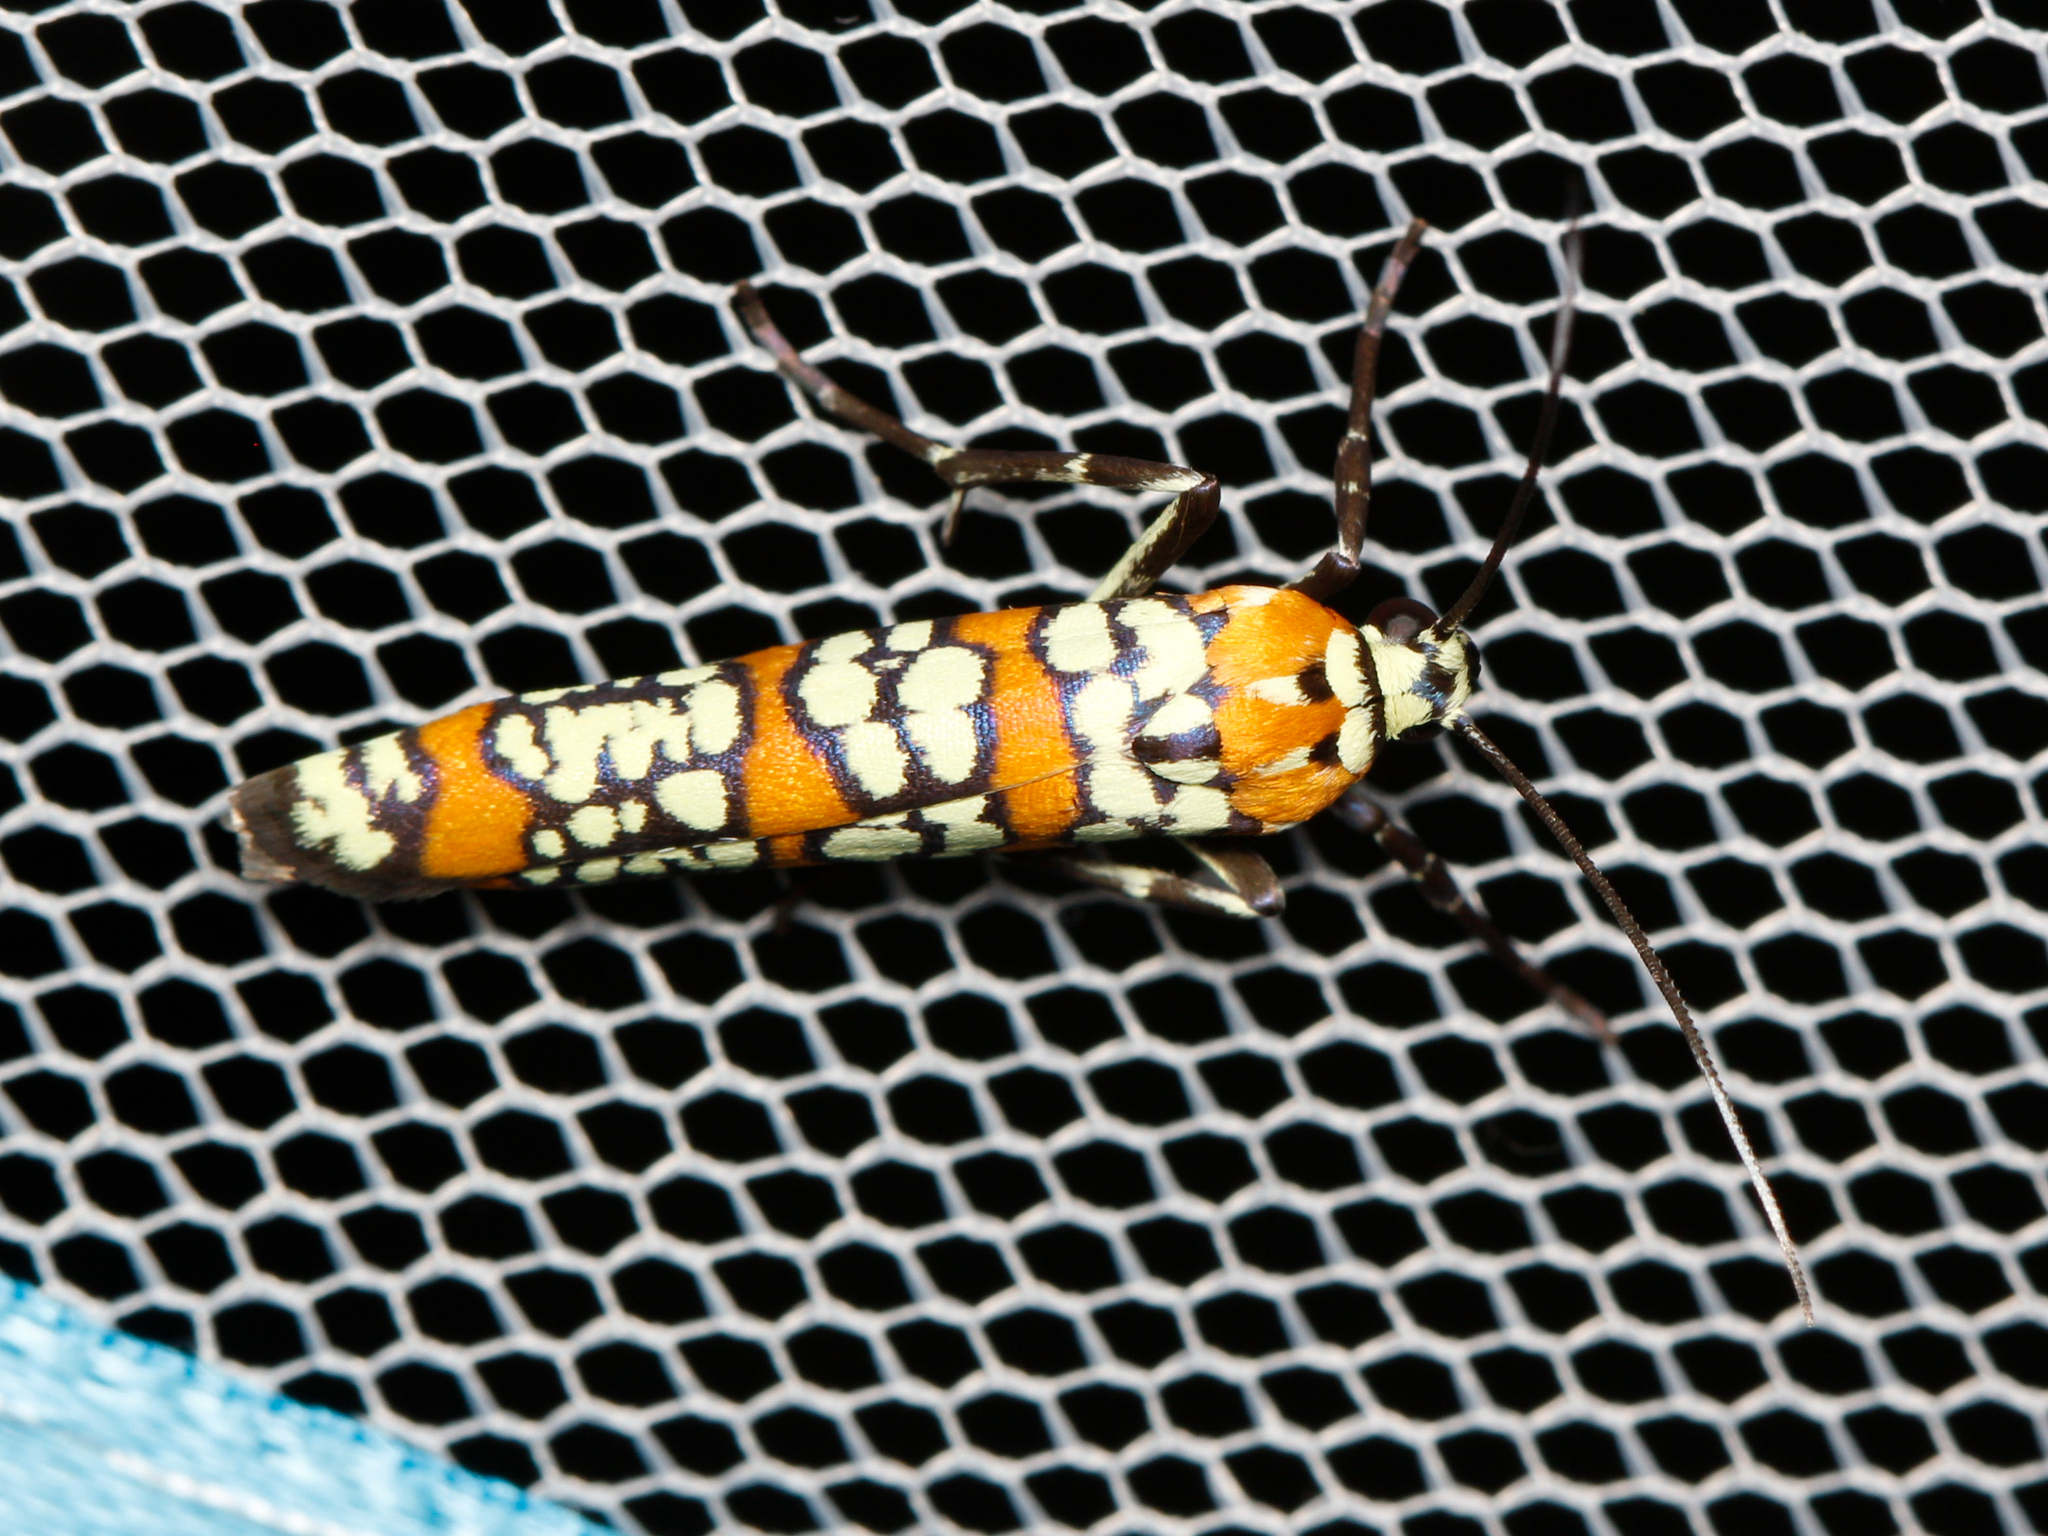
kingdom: Animalia
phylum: Arthropoda
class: Insecta
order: Lepidoptera
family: Attevidae
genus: Atteva
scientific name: Atteva punctella
